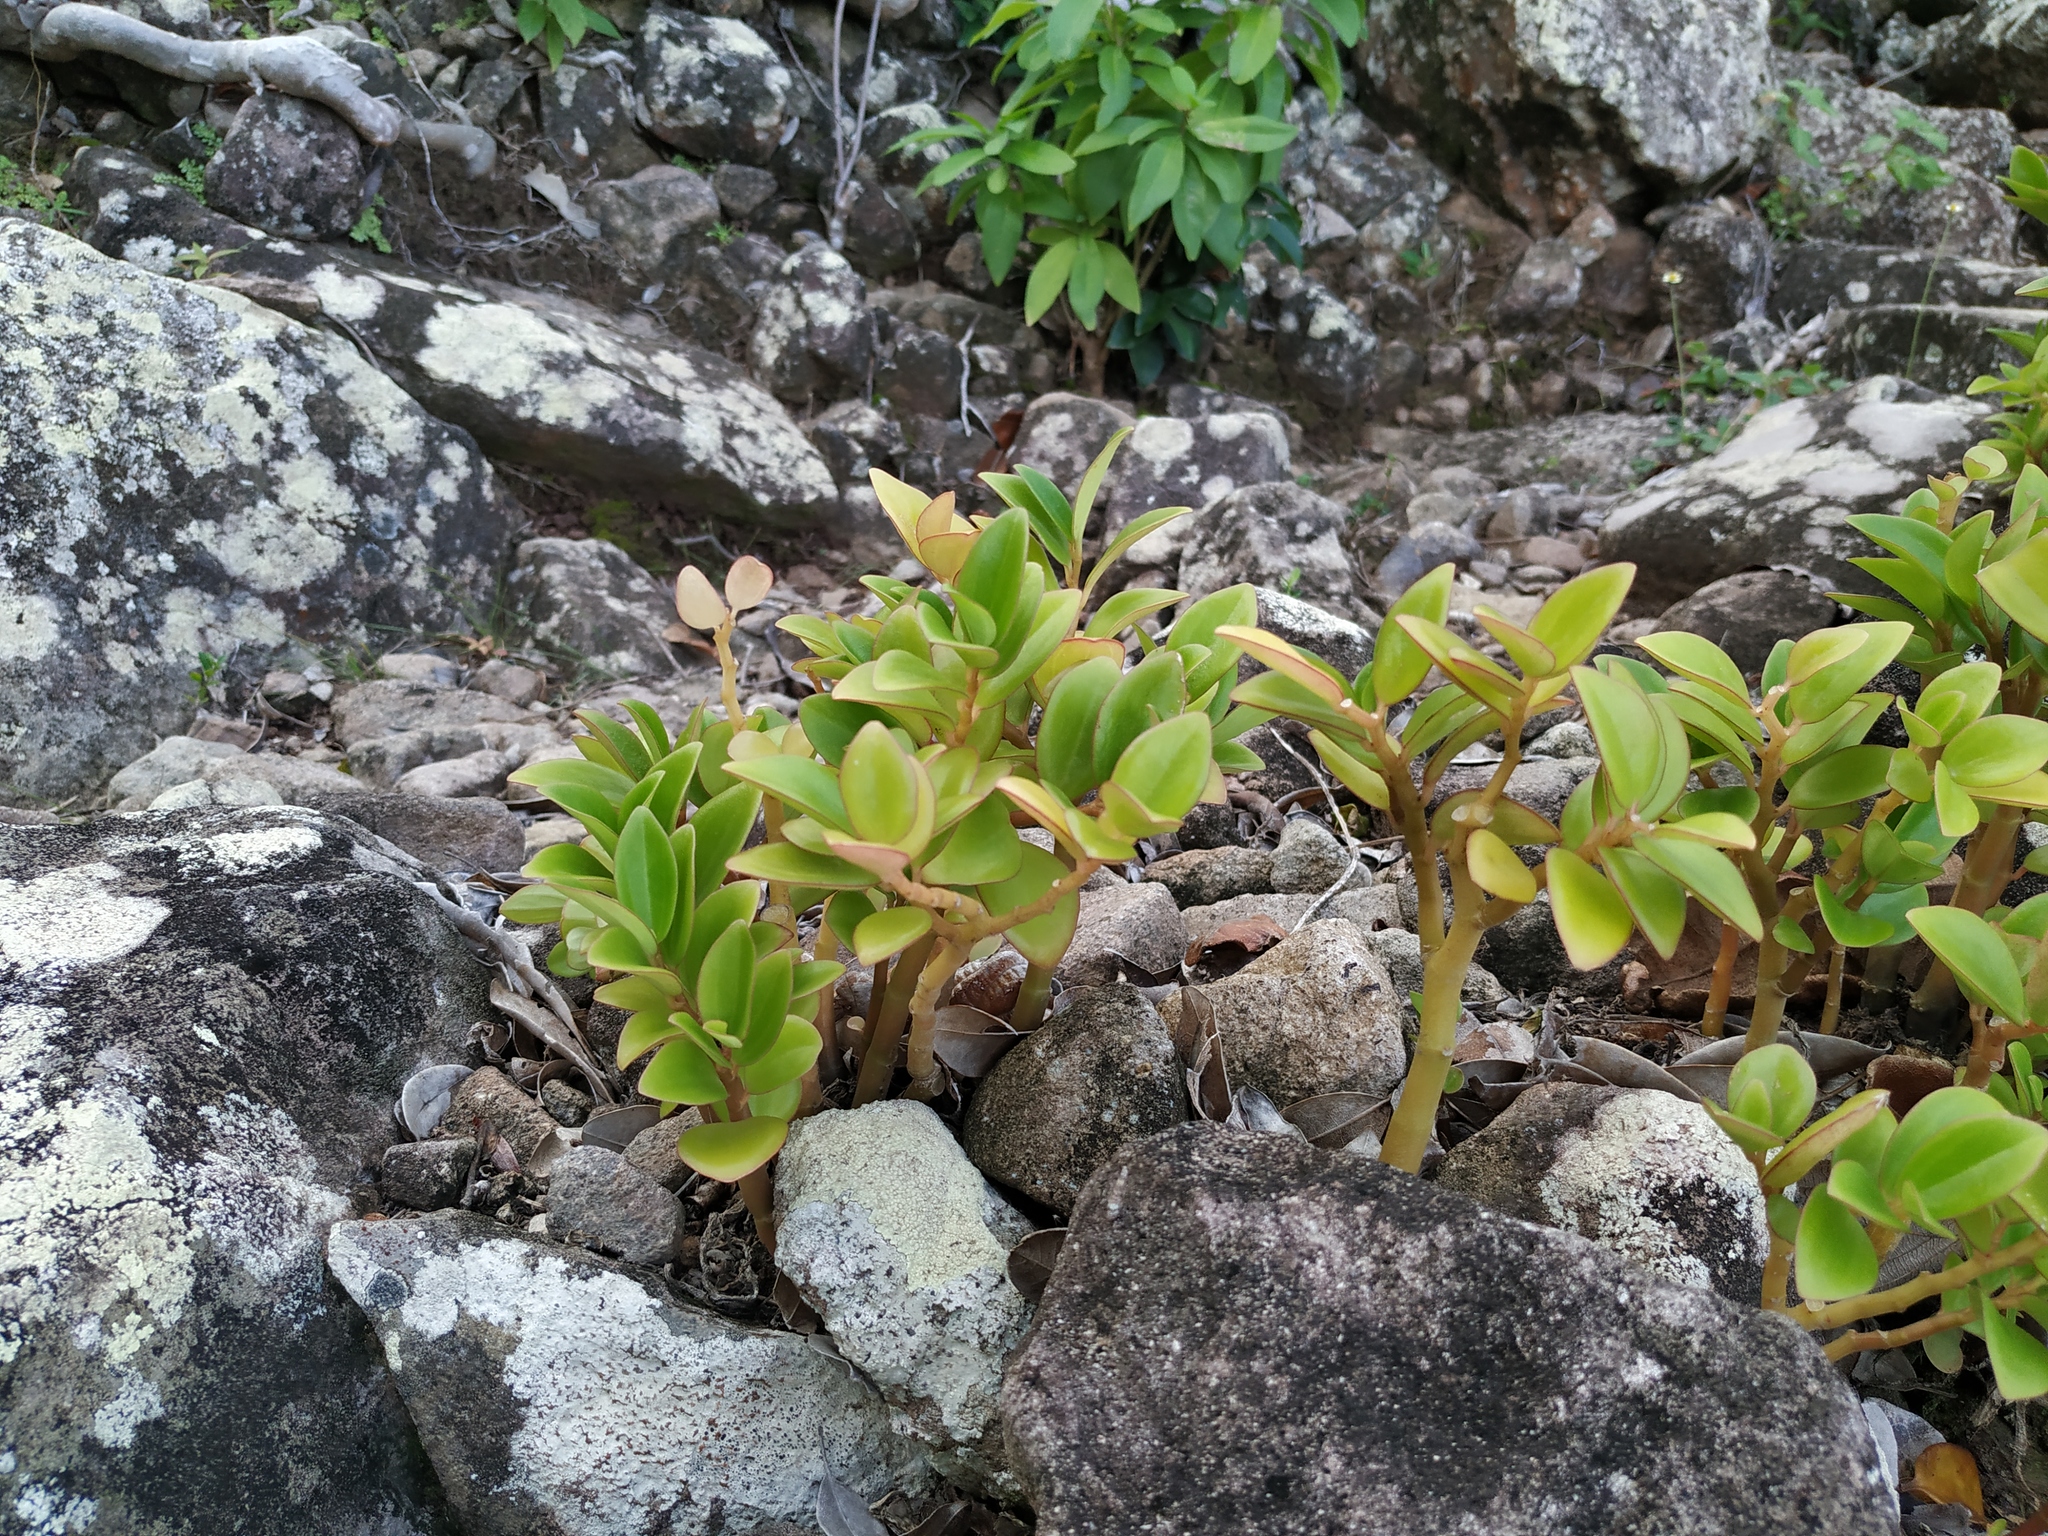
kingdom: Plantae
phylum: Tracheophyta
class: Magnoliopsida
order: Piperales
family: Piperaceae
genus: Peperomia
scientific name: Peperomia myrtifolia
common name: Myrtleleaf peperomia
